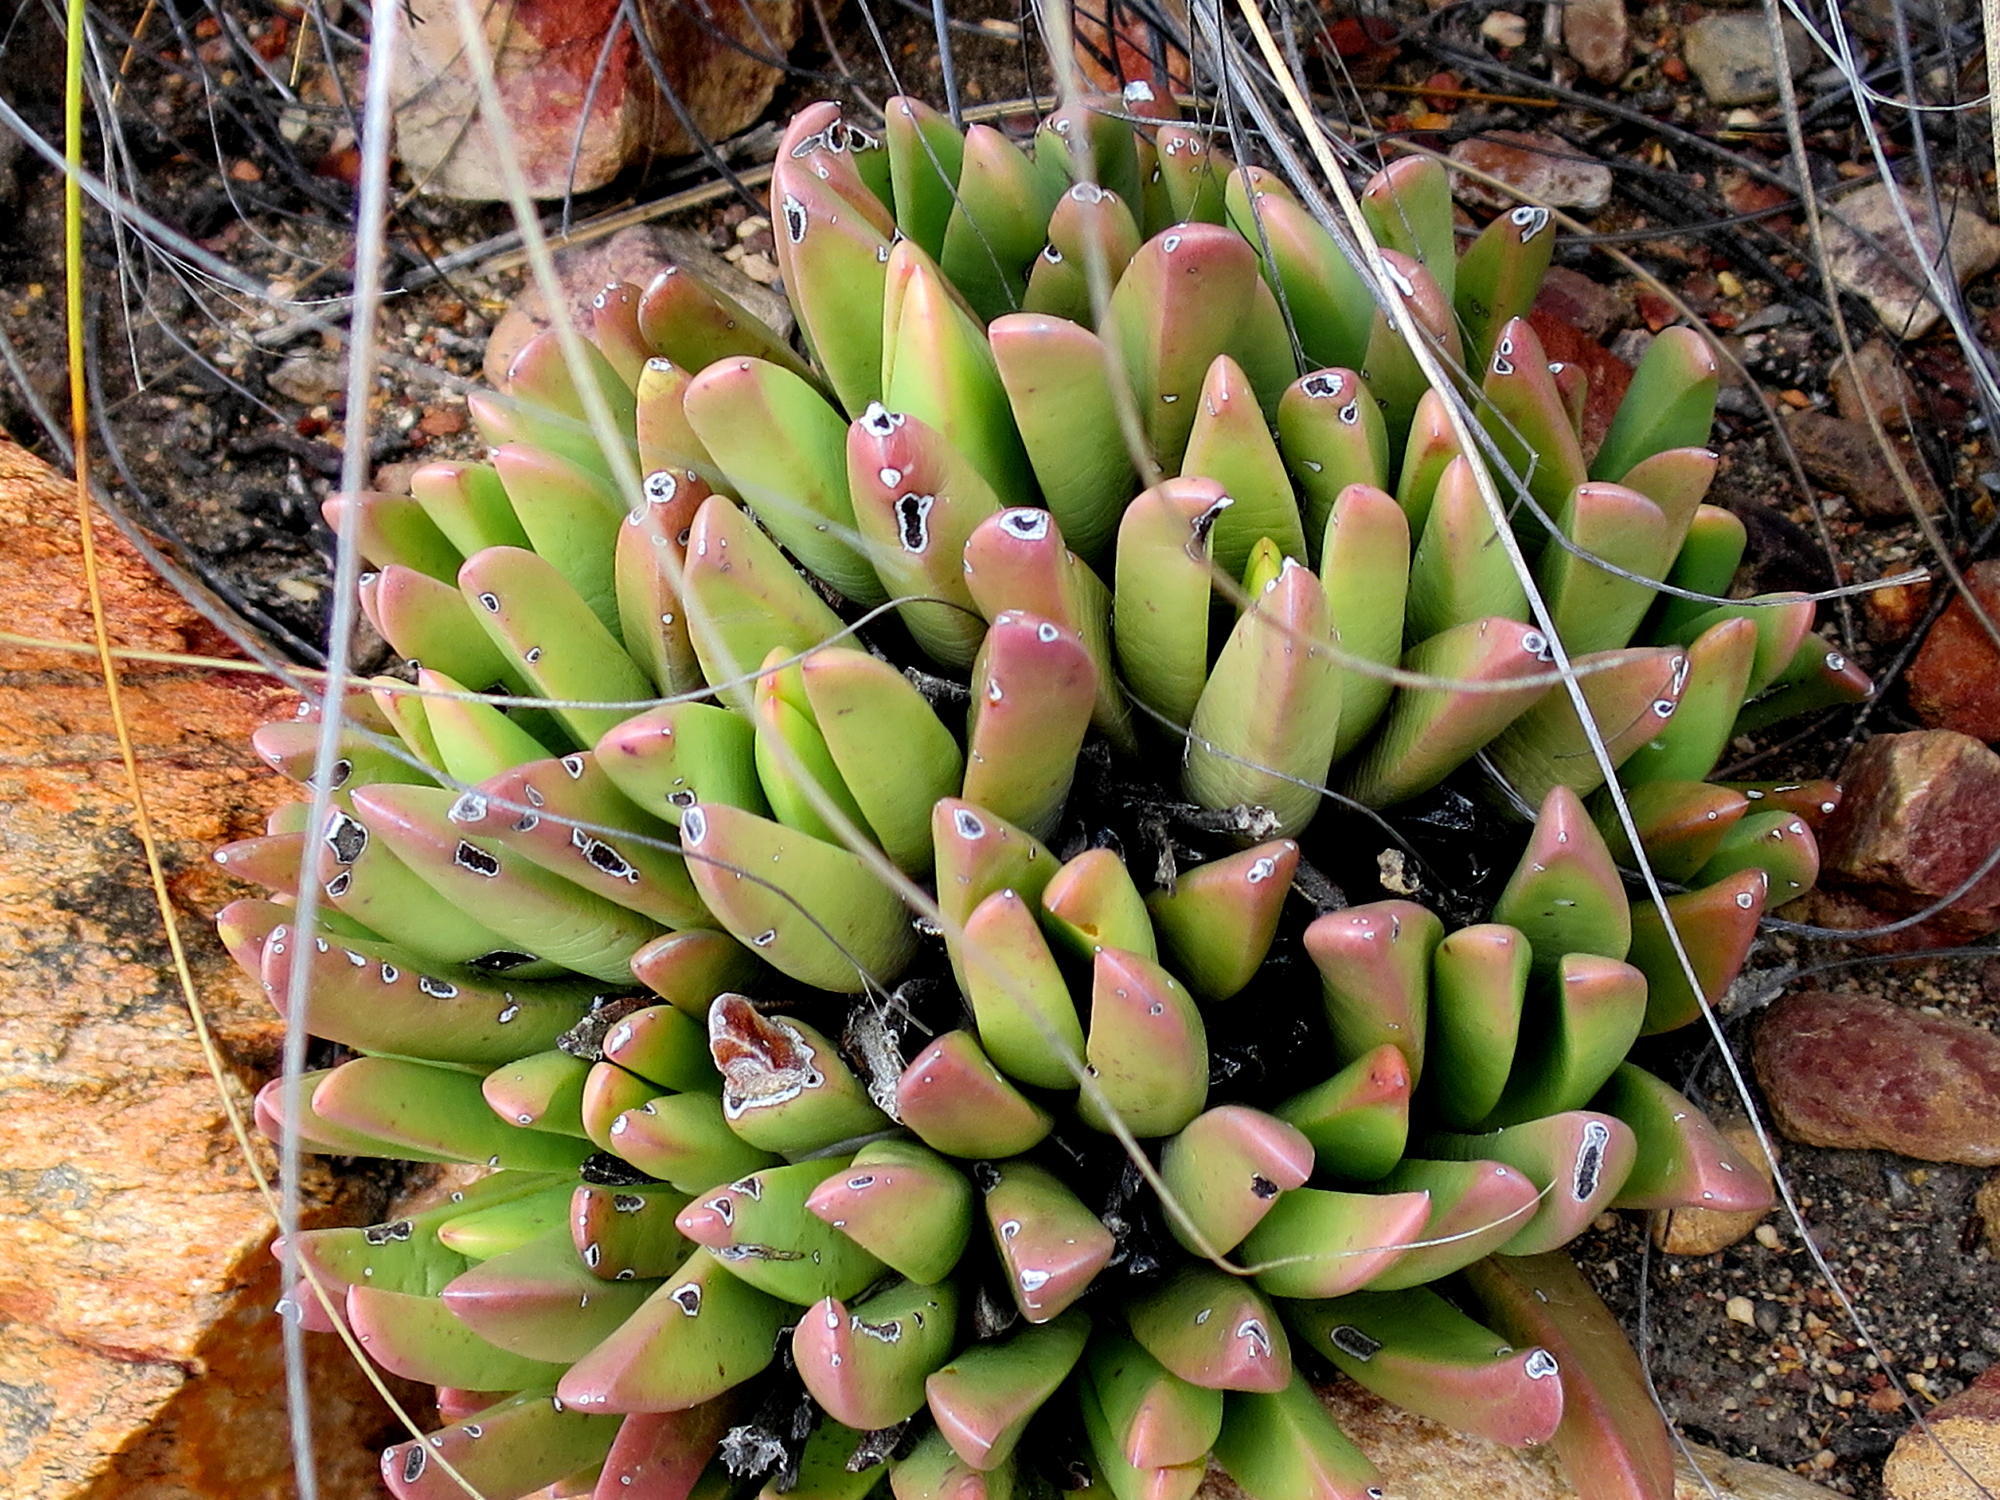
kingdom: Plantae
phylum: Tracheophyta
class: Magnoliopsida
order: Caryophyllales
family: Aizoaceae
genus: Machairophyllum
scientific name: Machairophyllum albidum
